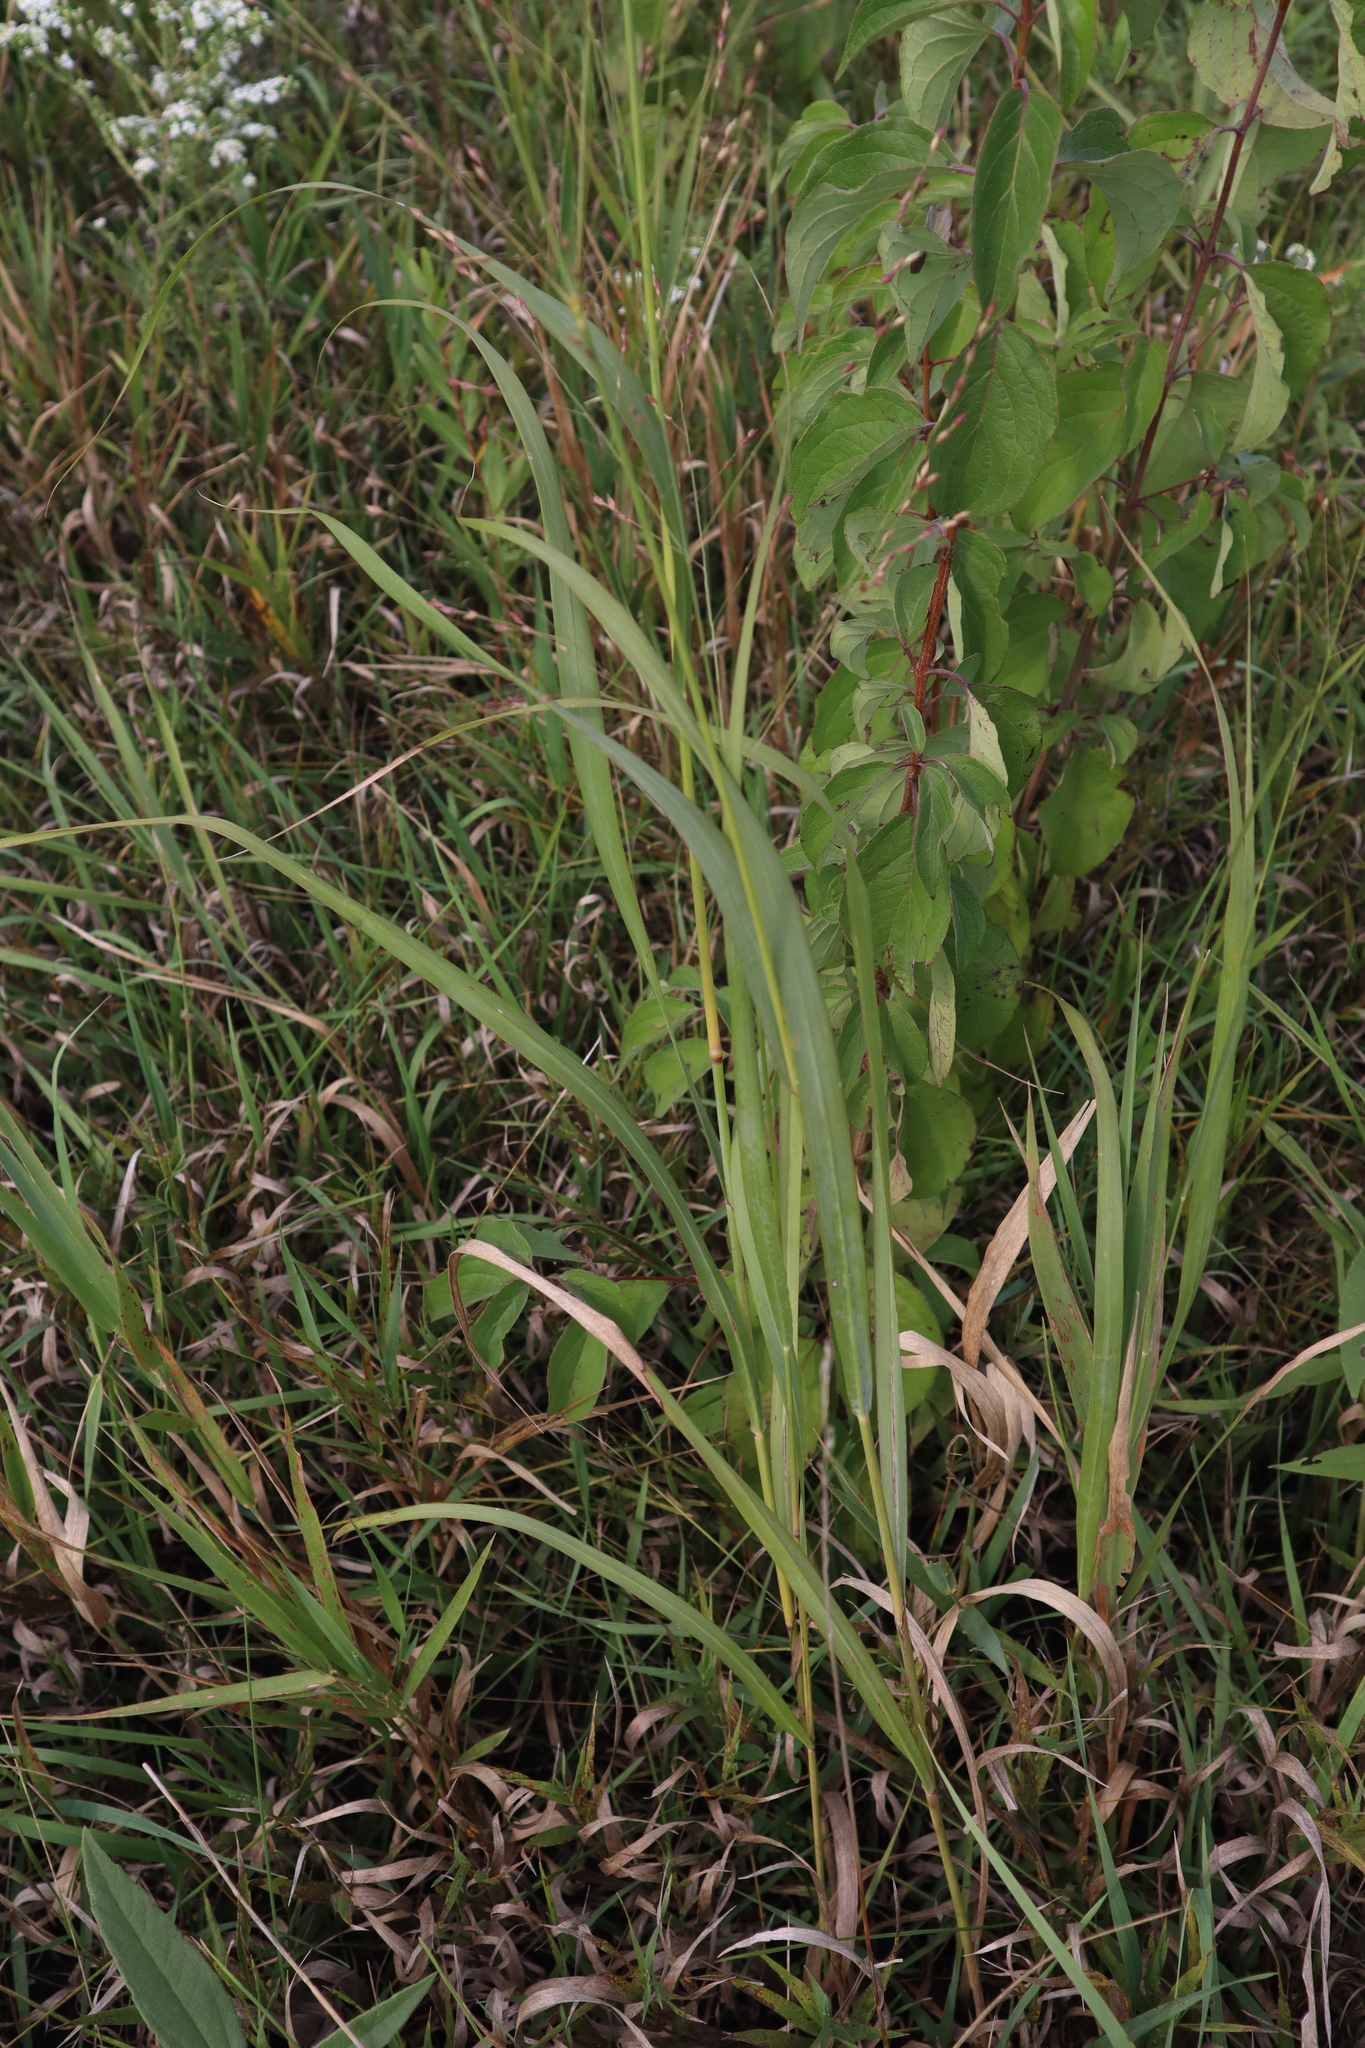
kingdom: Plantae
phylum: Tracheophyta
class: Liliopsida
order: Poales
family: Poaceae
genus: Panicum
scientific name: Panicum virgatum
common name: Switchgrass
